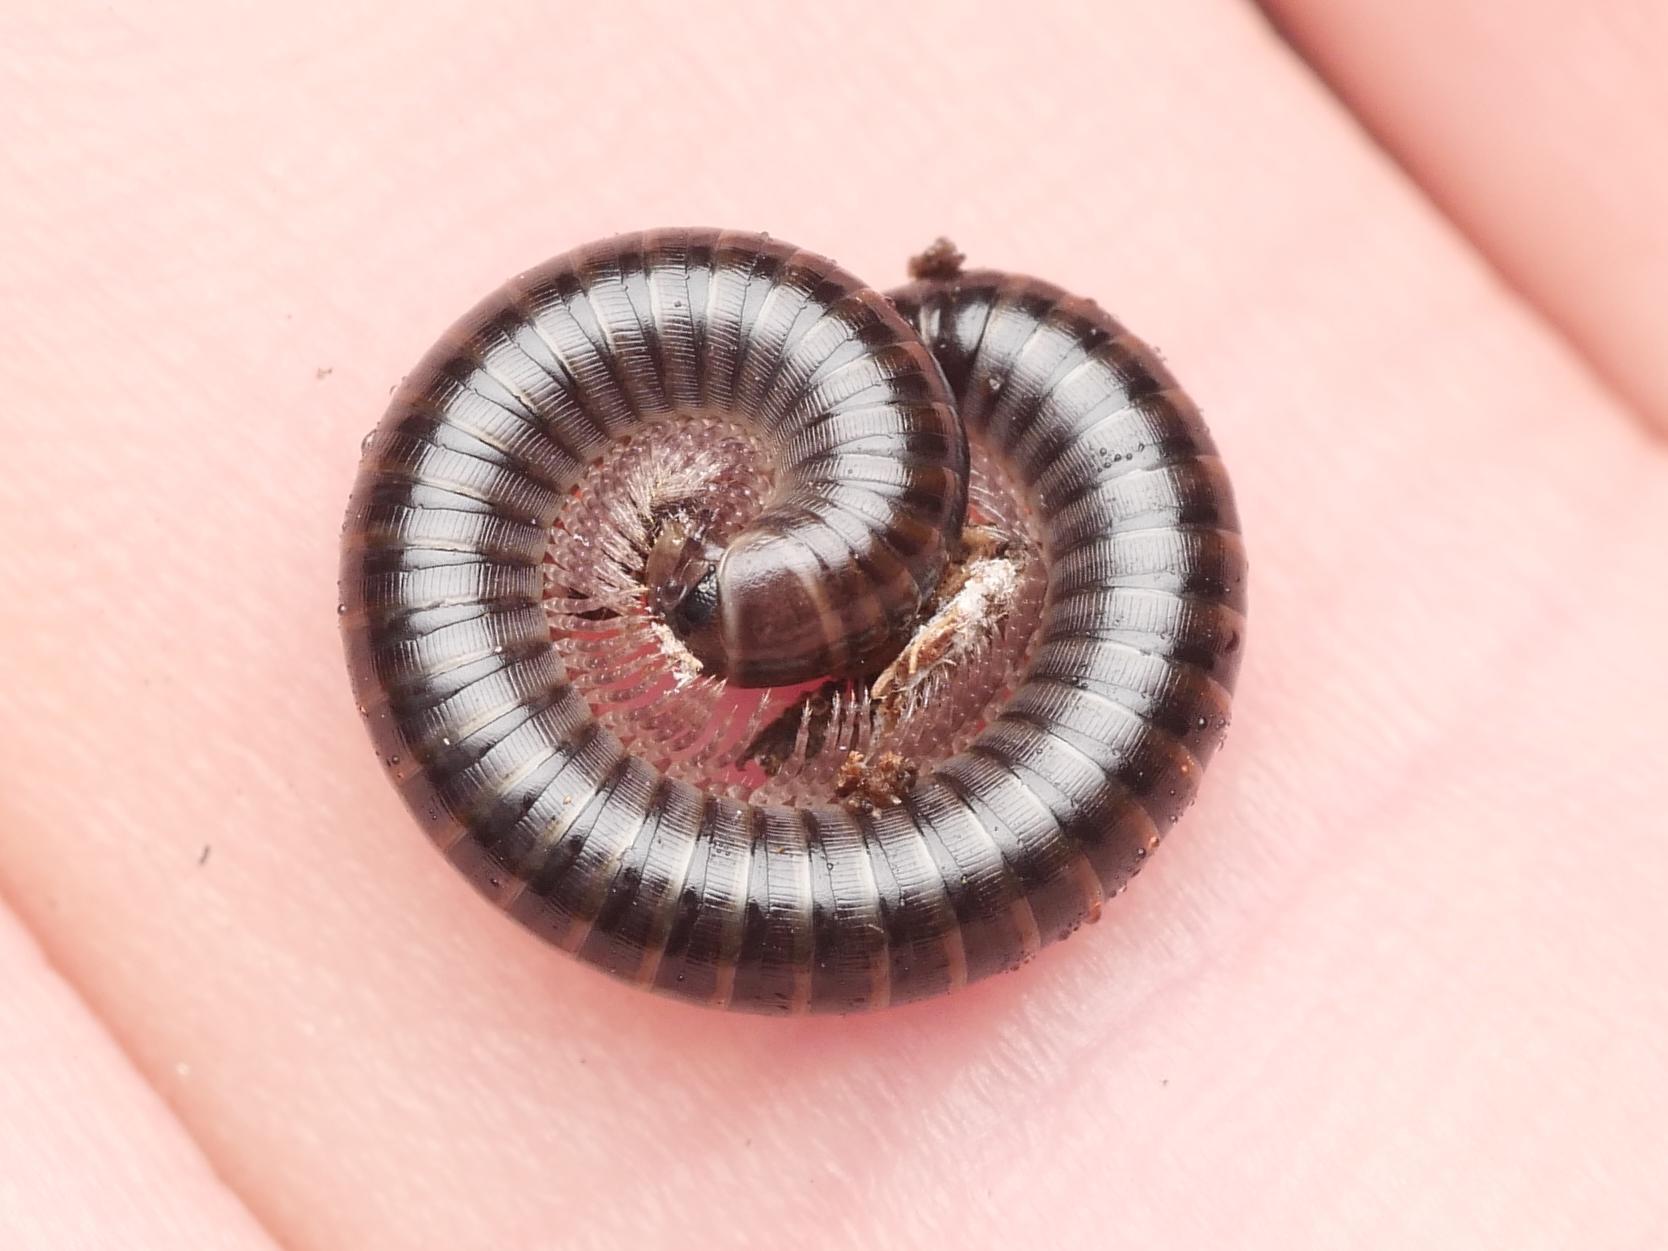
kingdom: Animalia
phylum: Arthropoda
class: Diplopoda
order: Julida
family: Julidae
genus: Cylindroiulus
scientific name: Cylindroiulus caeruleocinctus
